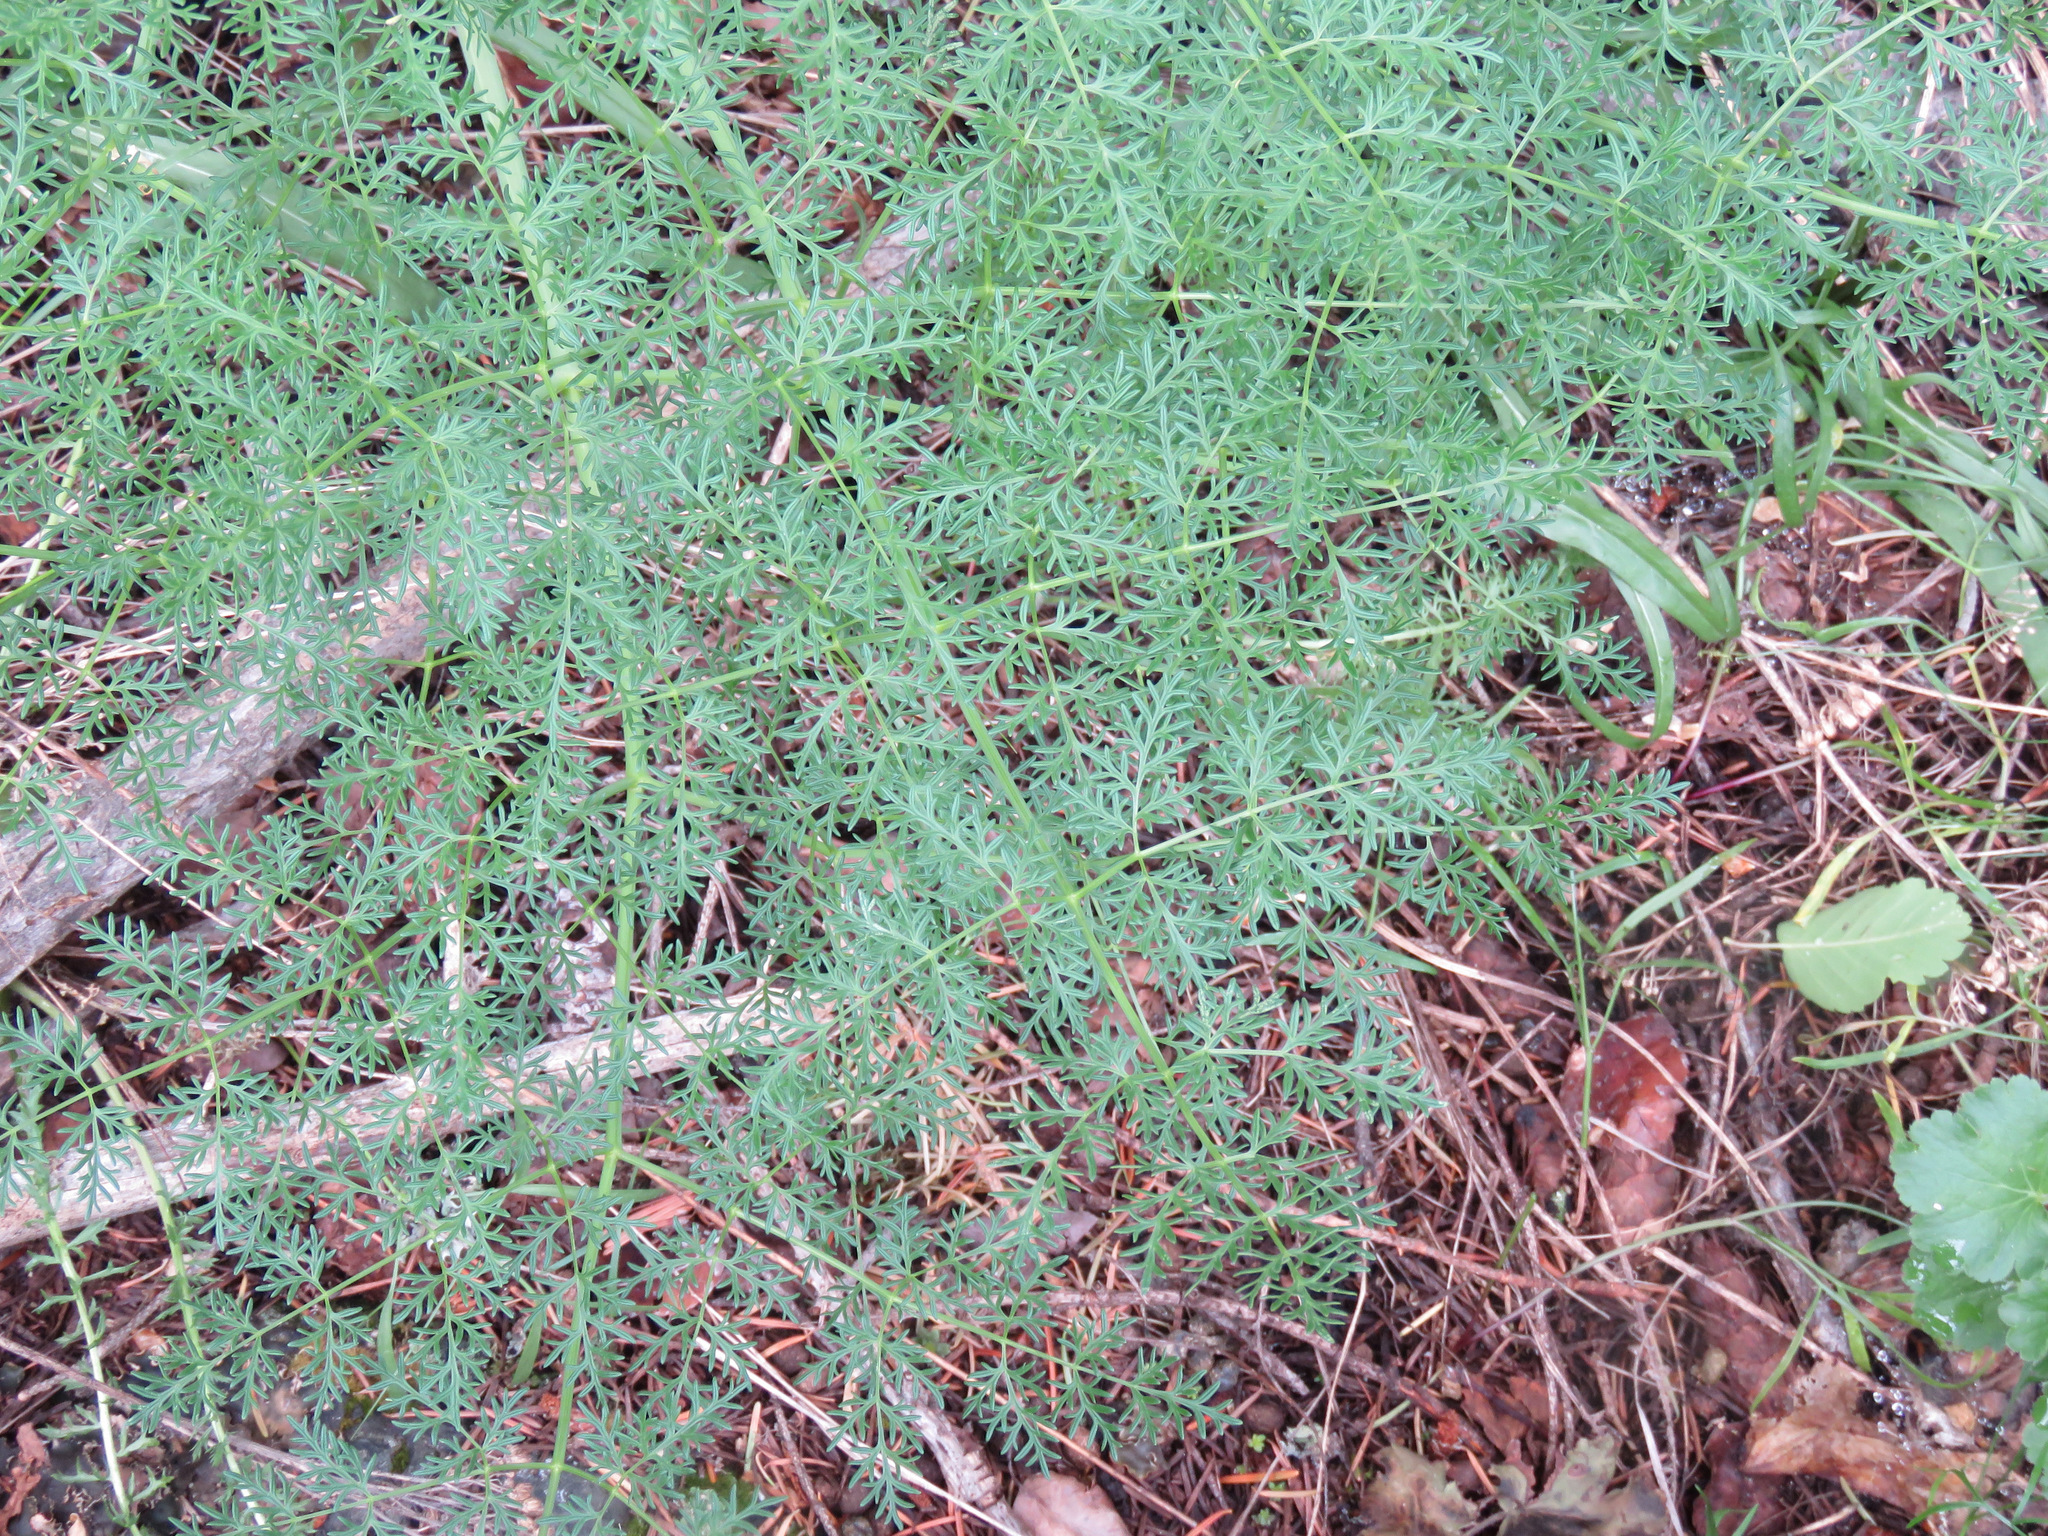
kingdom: Plantae
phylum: Tracheophyta
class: Magnoliopsida
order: Apiales
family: Apiaceae
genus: Lomatium
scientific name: Lomatium multifidum
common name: Carrot-leaved biscuitroot
